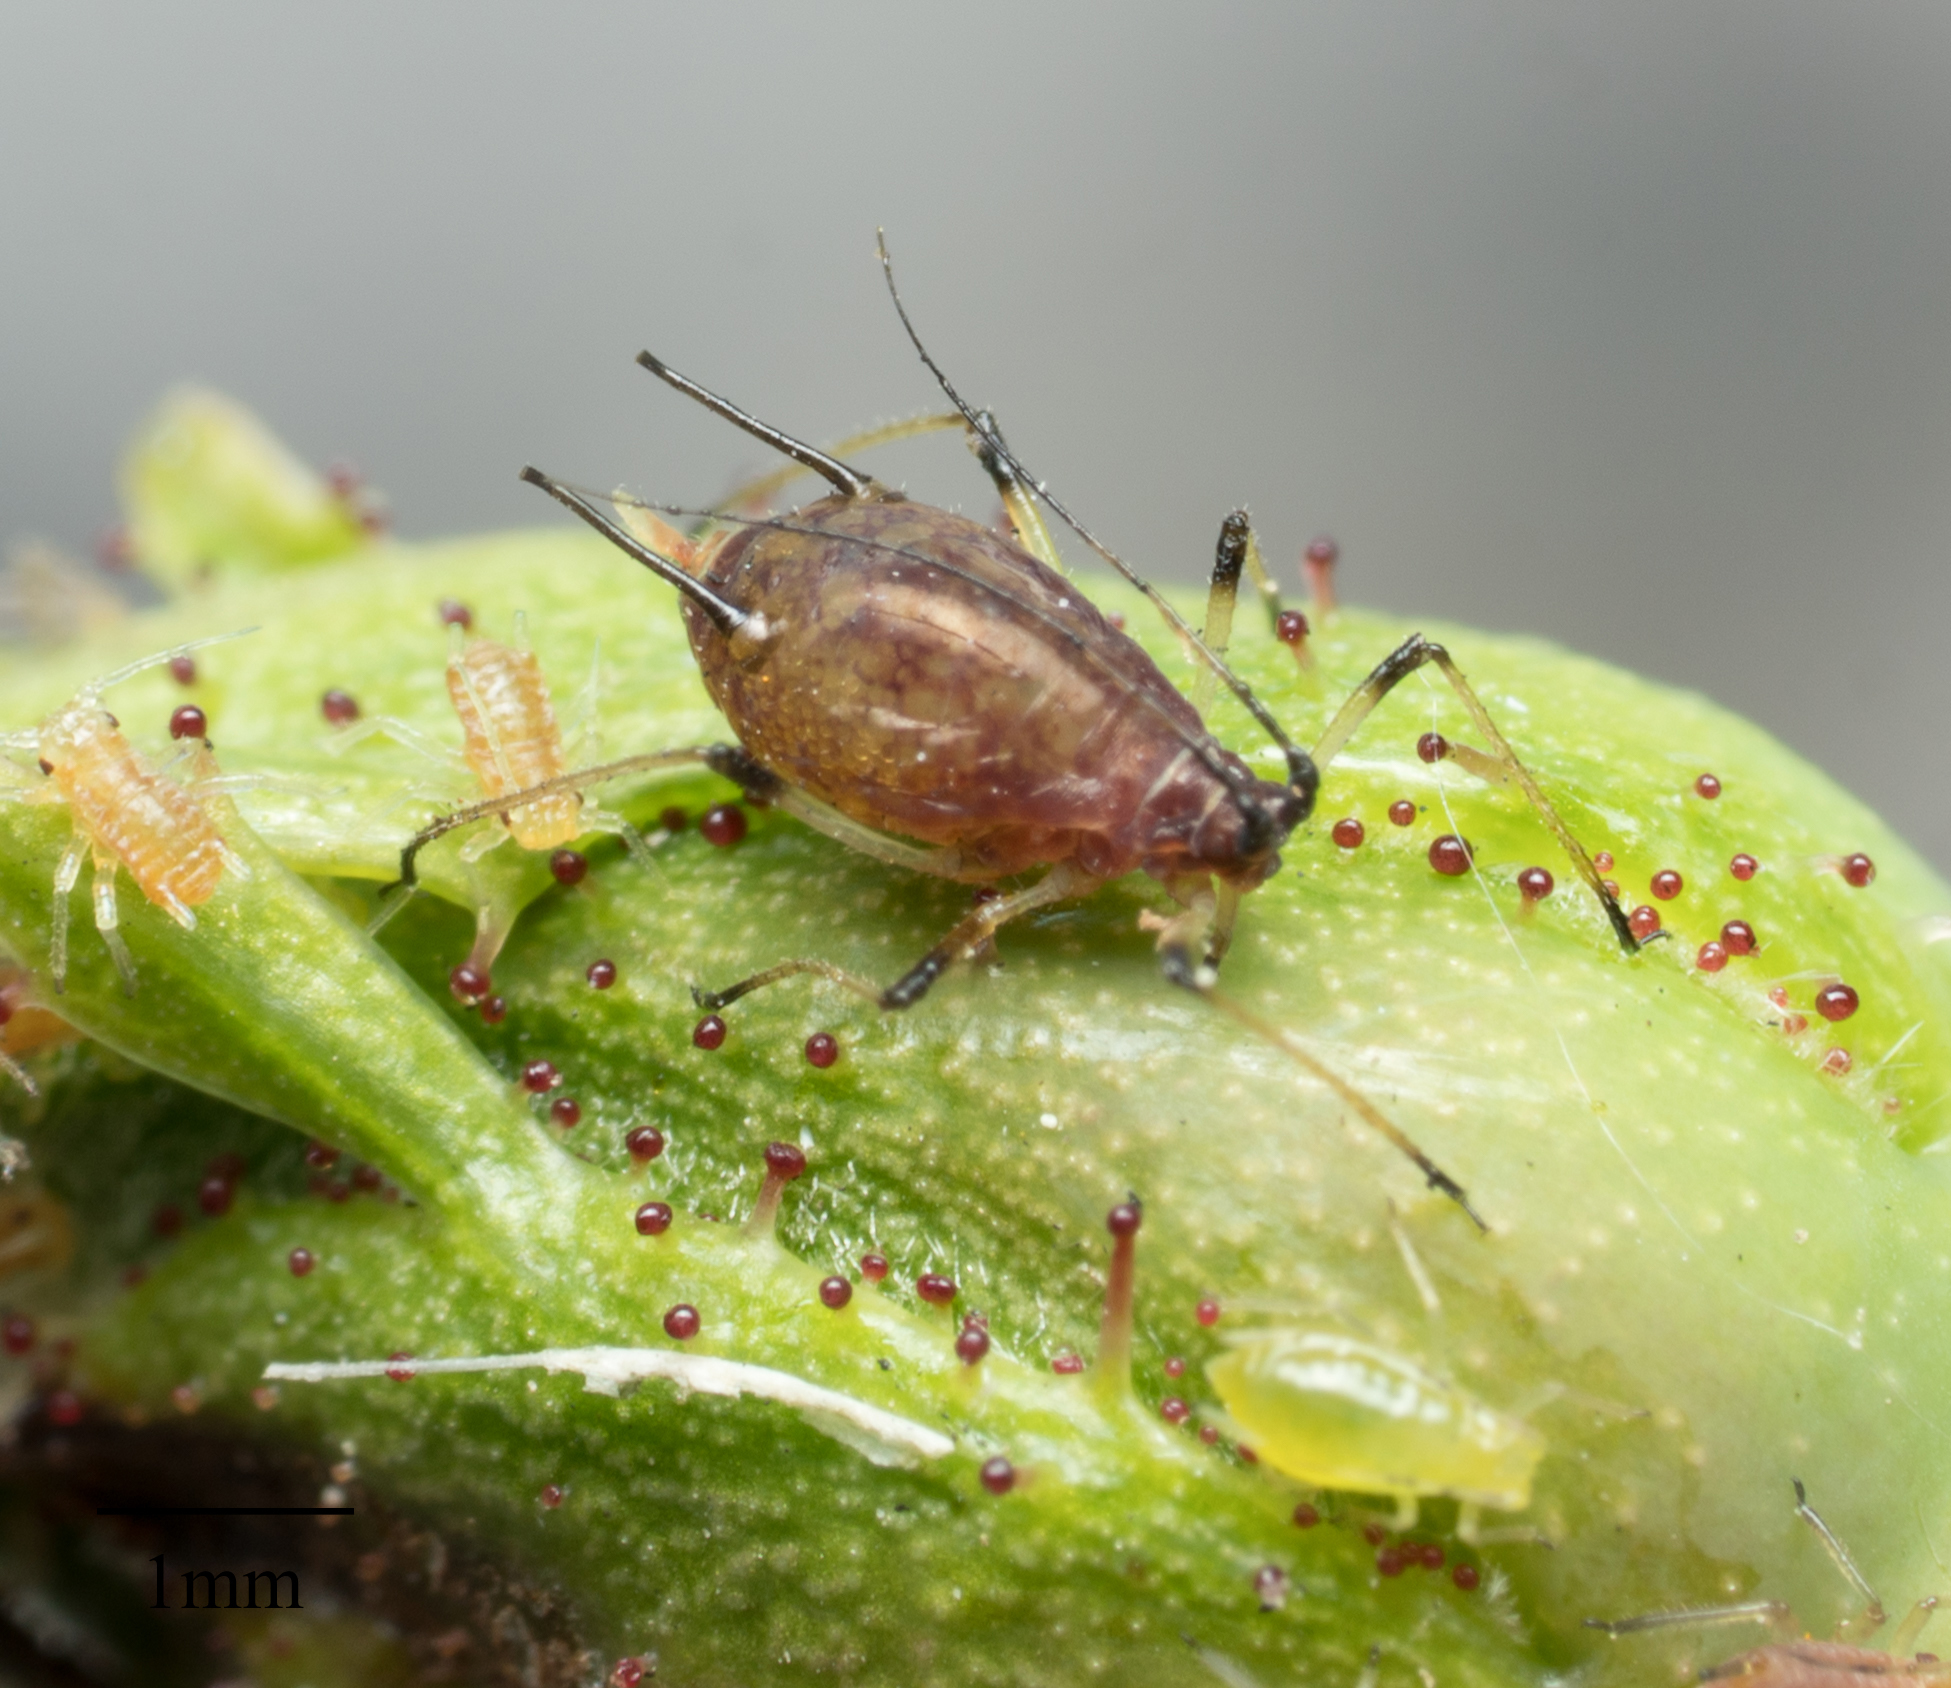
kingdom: Animalia
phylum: Arthropoda
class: Insecta
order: Hemiptera
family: Aphididae
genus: Macrosiphum
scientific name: Macrosiphum rosae
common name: Rose aphid
